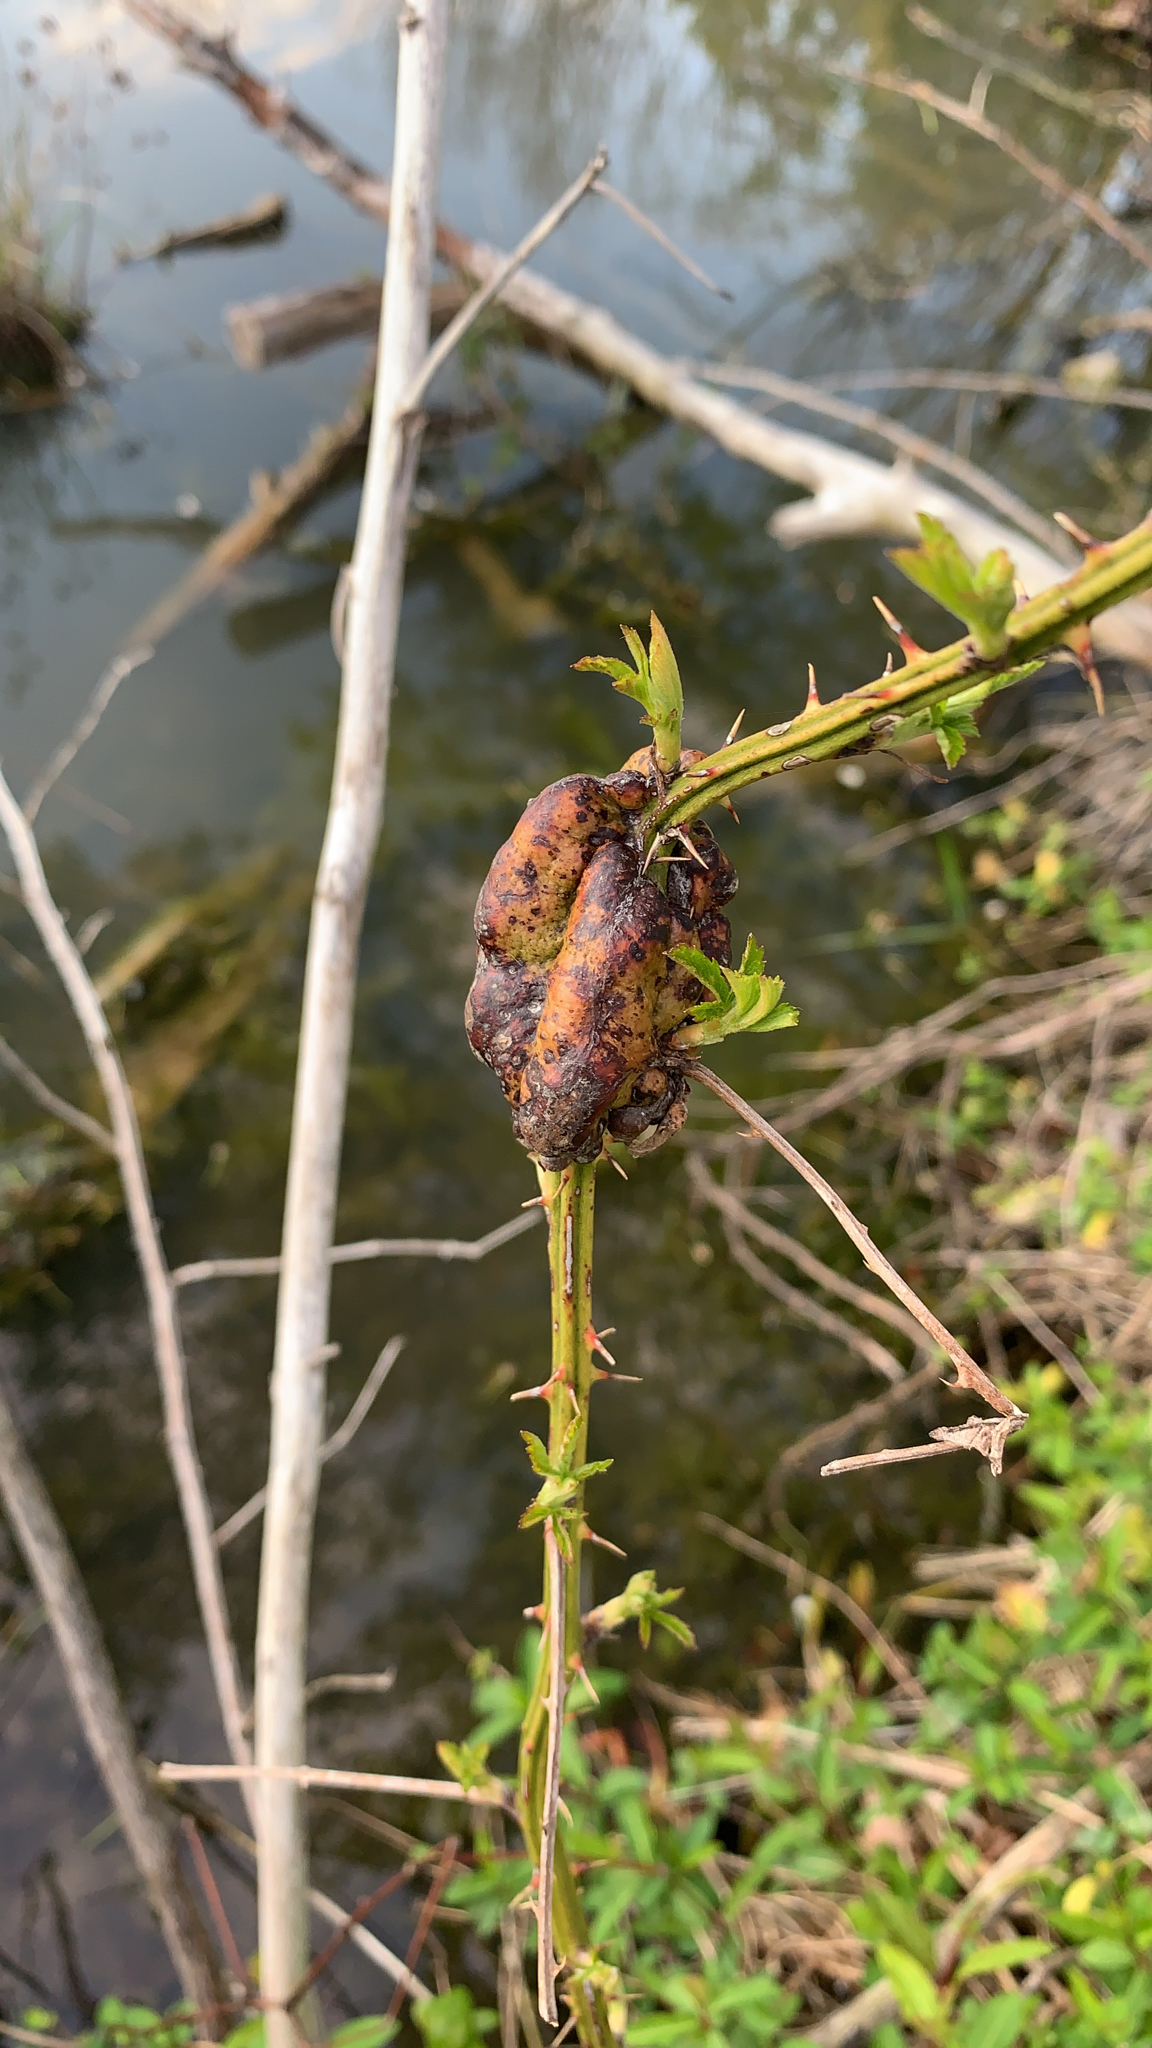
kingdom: Animalia
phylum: Arthropoda
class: Insecta
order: Hymenoptera
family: Cynipidae
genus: Diastrophus
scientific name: Diastrophus
